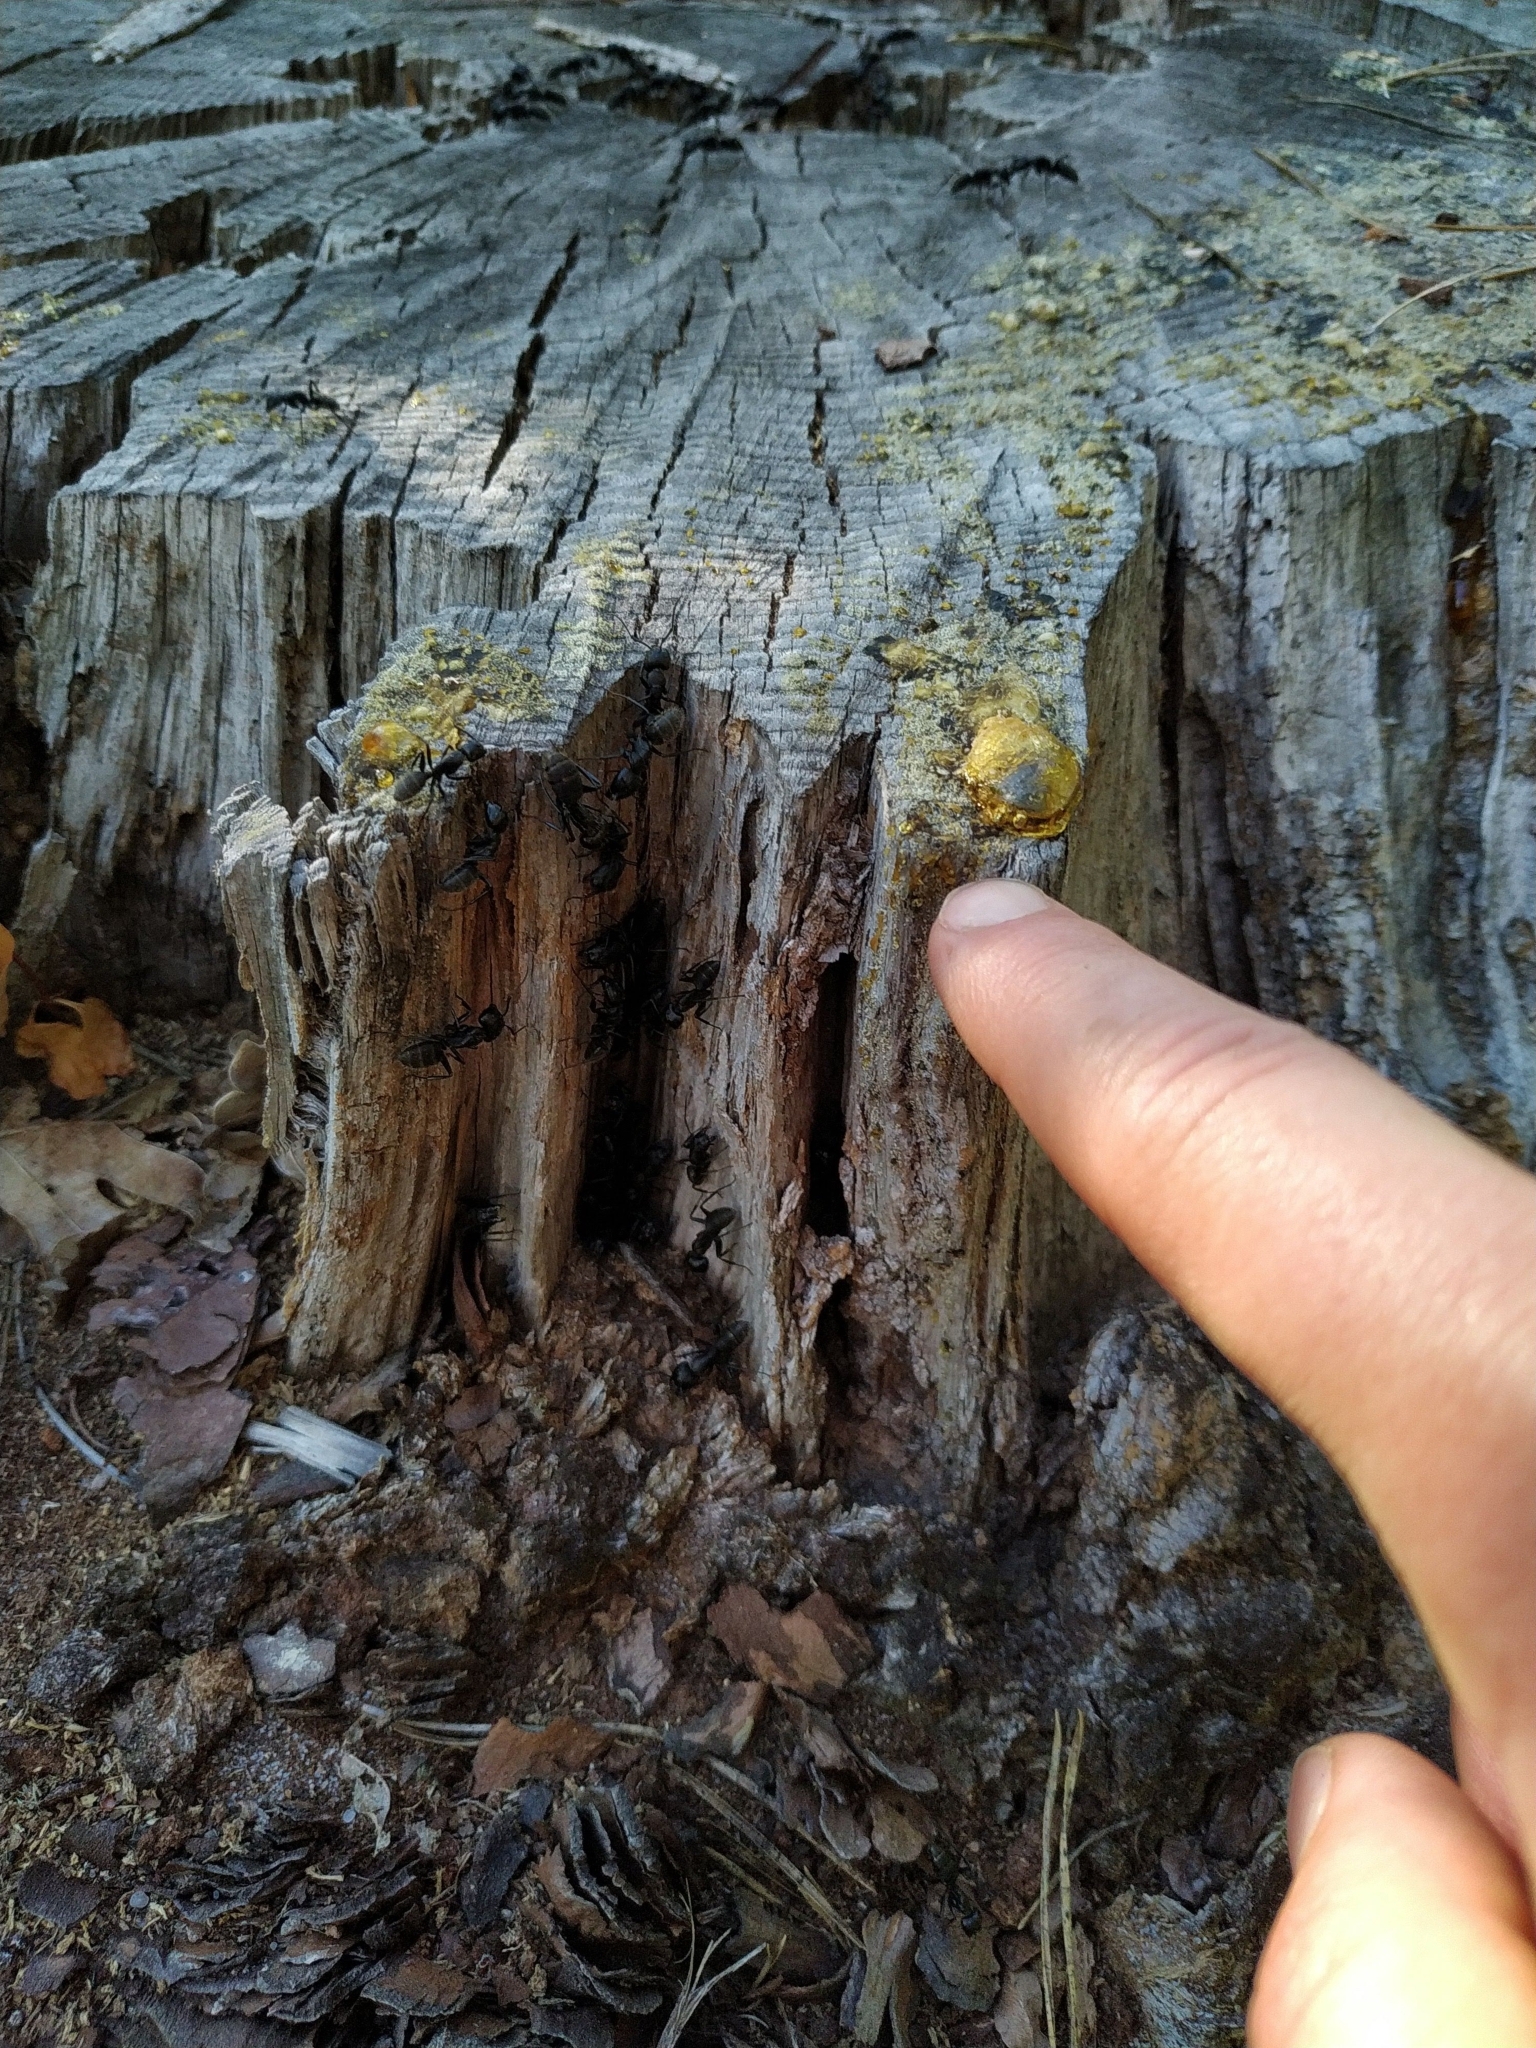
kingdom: Animalia
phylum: Arthropoda
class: Insecta
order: Hymenoptera
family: Formicidae
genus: Camponotus
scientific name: Camponotus vagus
